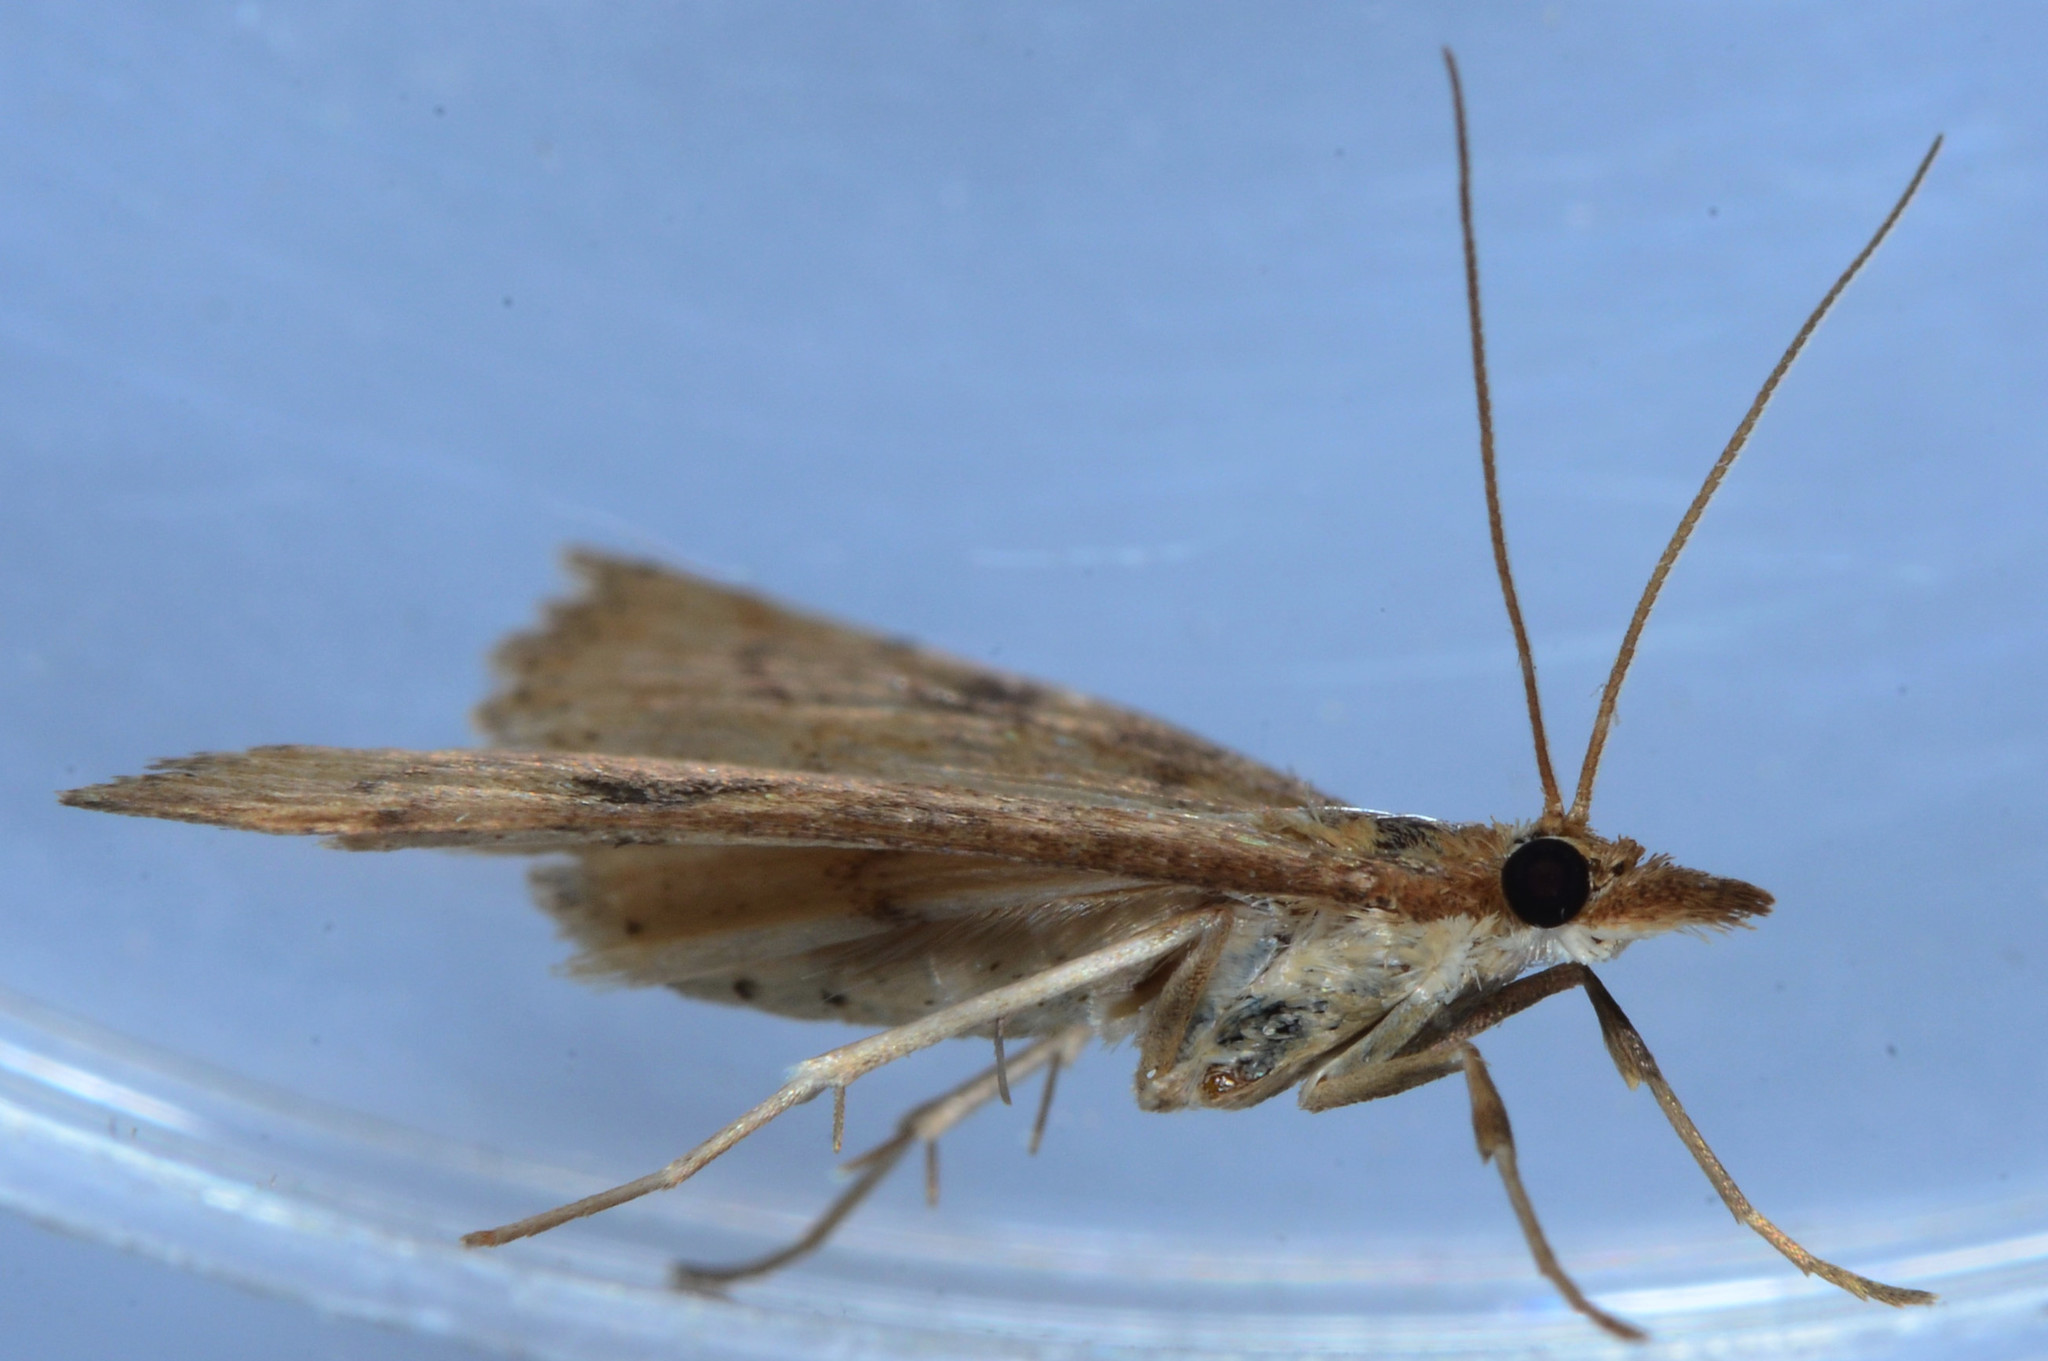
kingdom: Animalia
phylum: Arthropoda
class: Insecta
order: Lepidoptera
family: Crambidae
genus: Udea
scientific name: Udea rubigalis
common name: Celery leaftier moth
